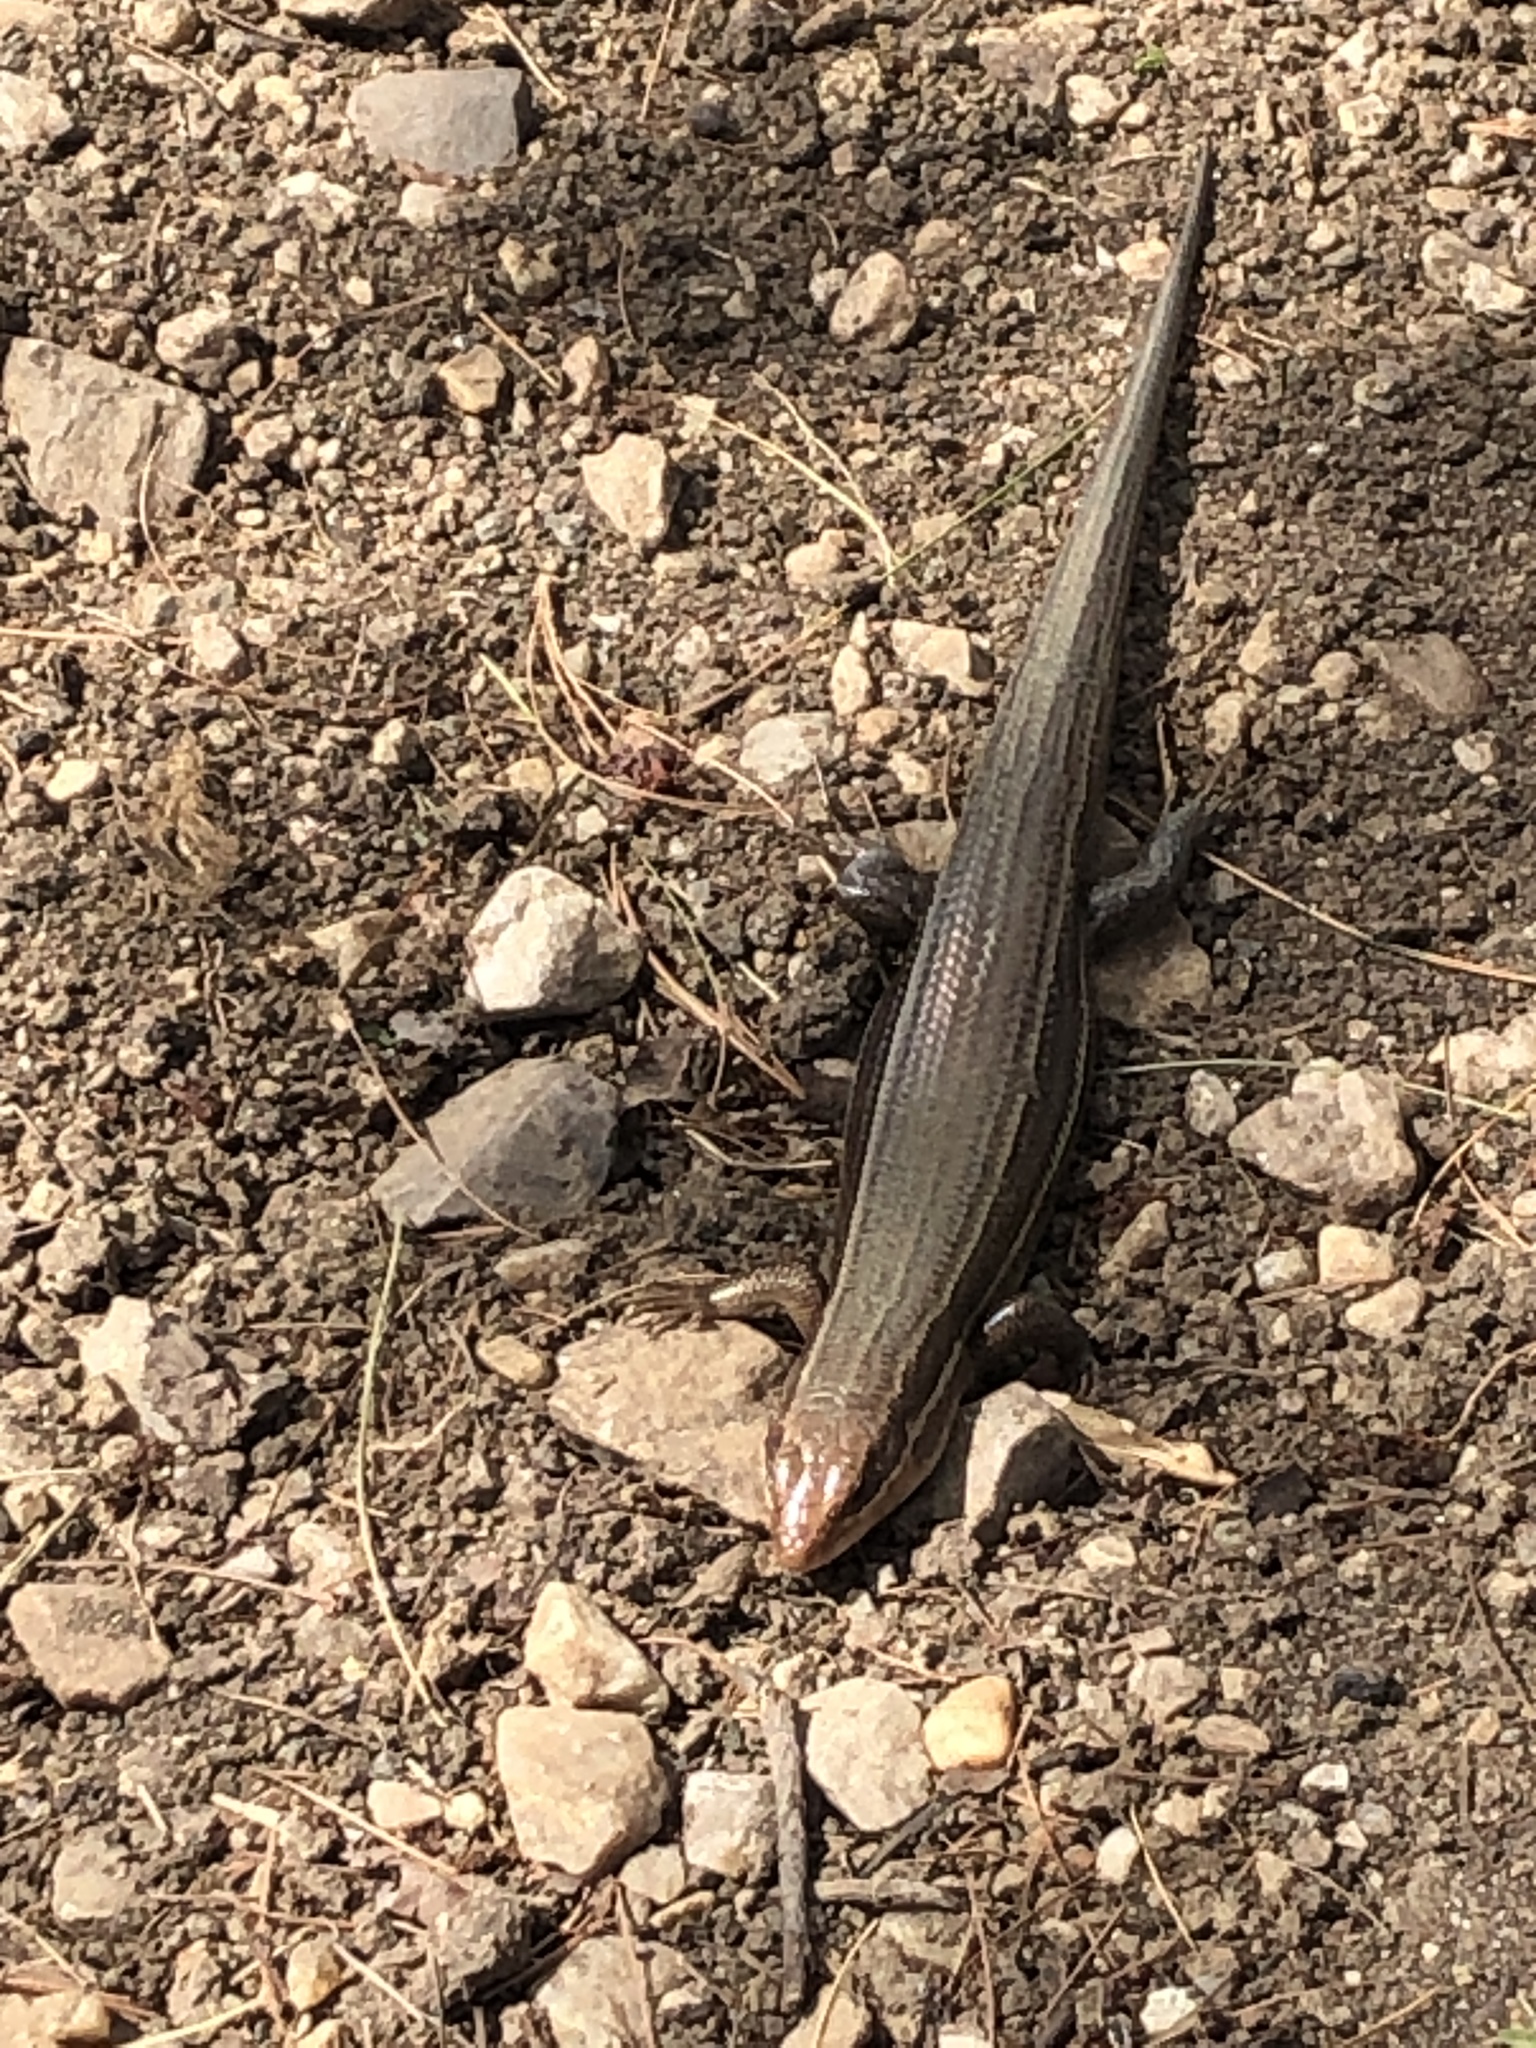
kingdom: Animalia
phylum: Chordata
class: Squamata
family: Scincidae
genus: Plestiodon
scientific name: Plestiodon laticeps
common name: Broadhead skink
